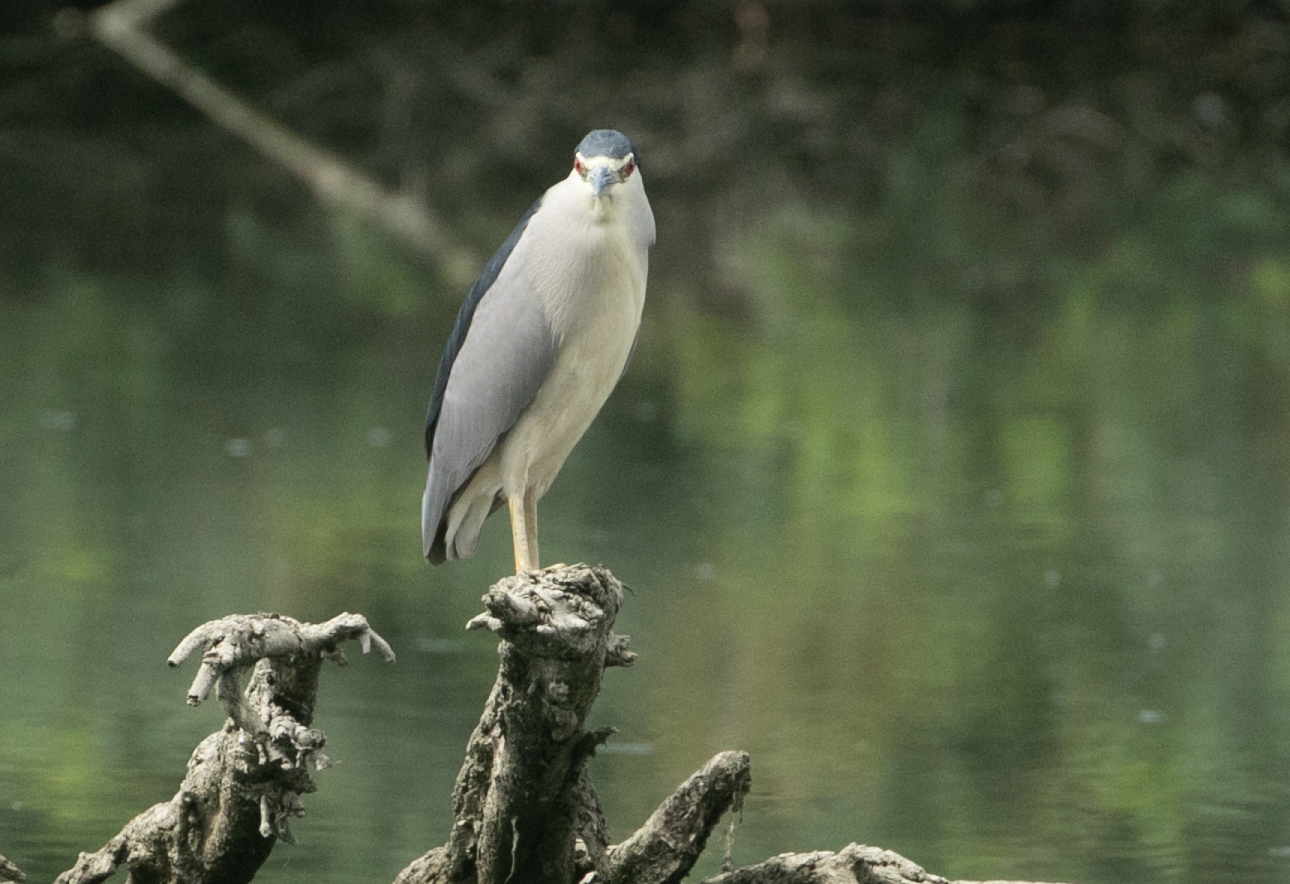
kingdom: Animalia
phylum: Chordata
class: Aves
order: Pelecaniformes
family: Ardeidae
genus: Nycticorax
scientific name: Nycticorax nycticorax
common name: Black-crowned night heron
